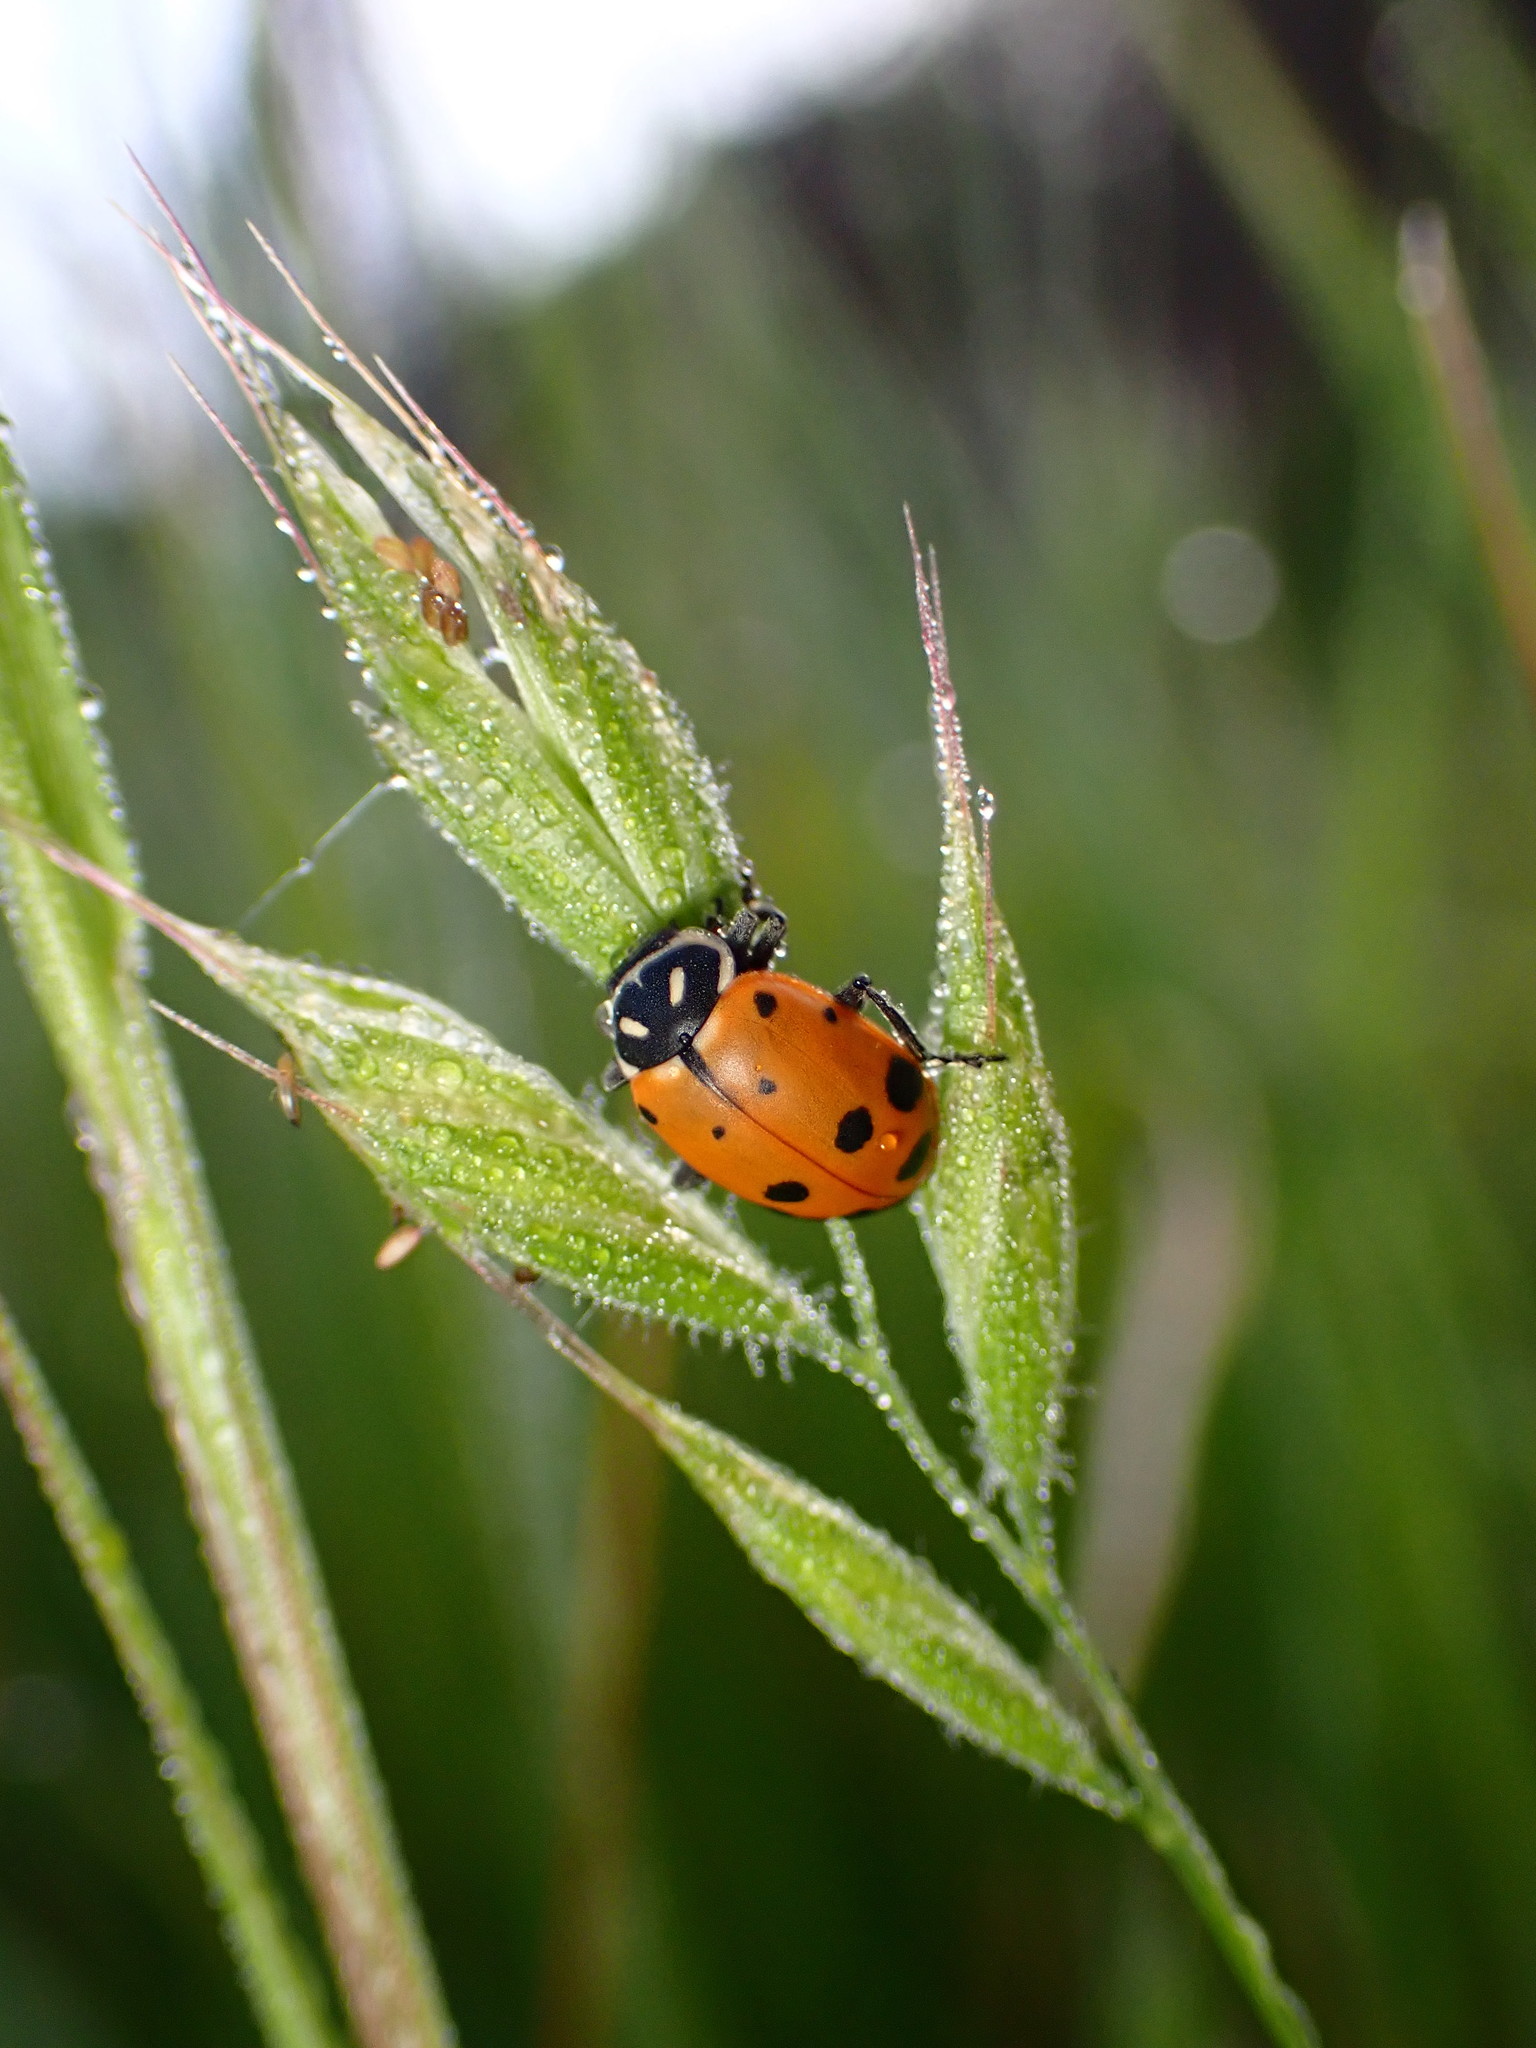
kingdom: Animalia
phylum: Arthropoda
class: Insecta
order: Coleoptera
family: Coccinellidae
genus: Hippodamia
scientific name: Hippodamia convergens
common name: Convergent lady beetle
